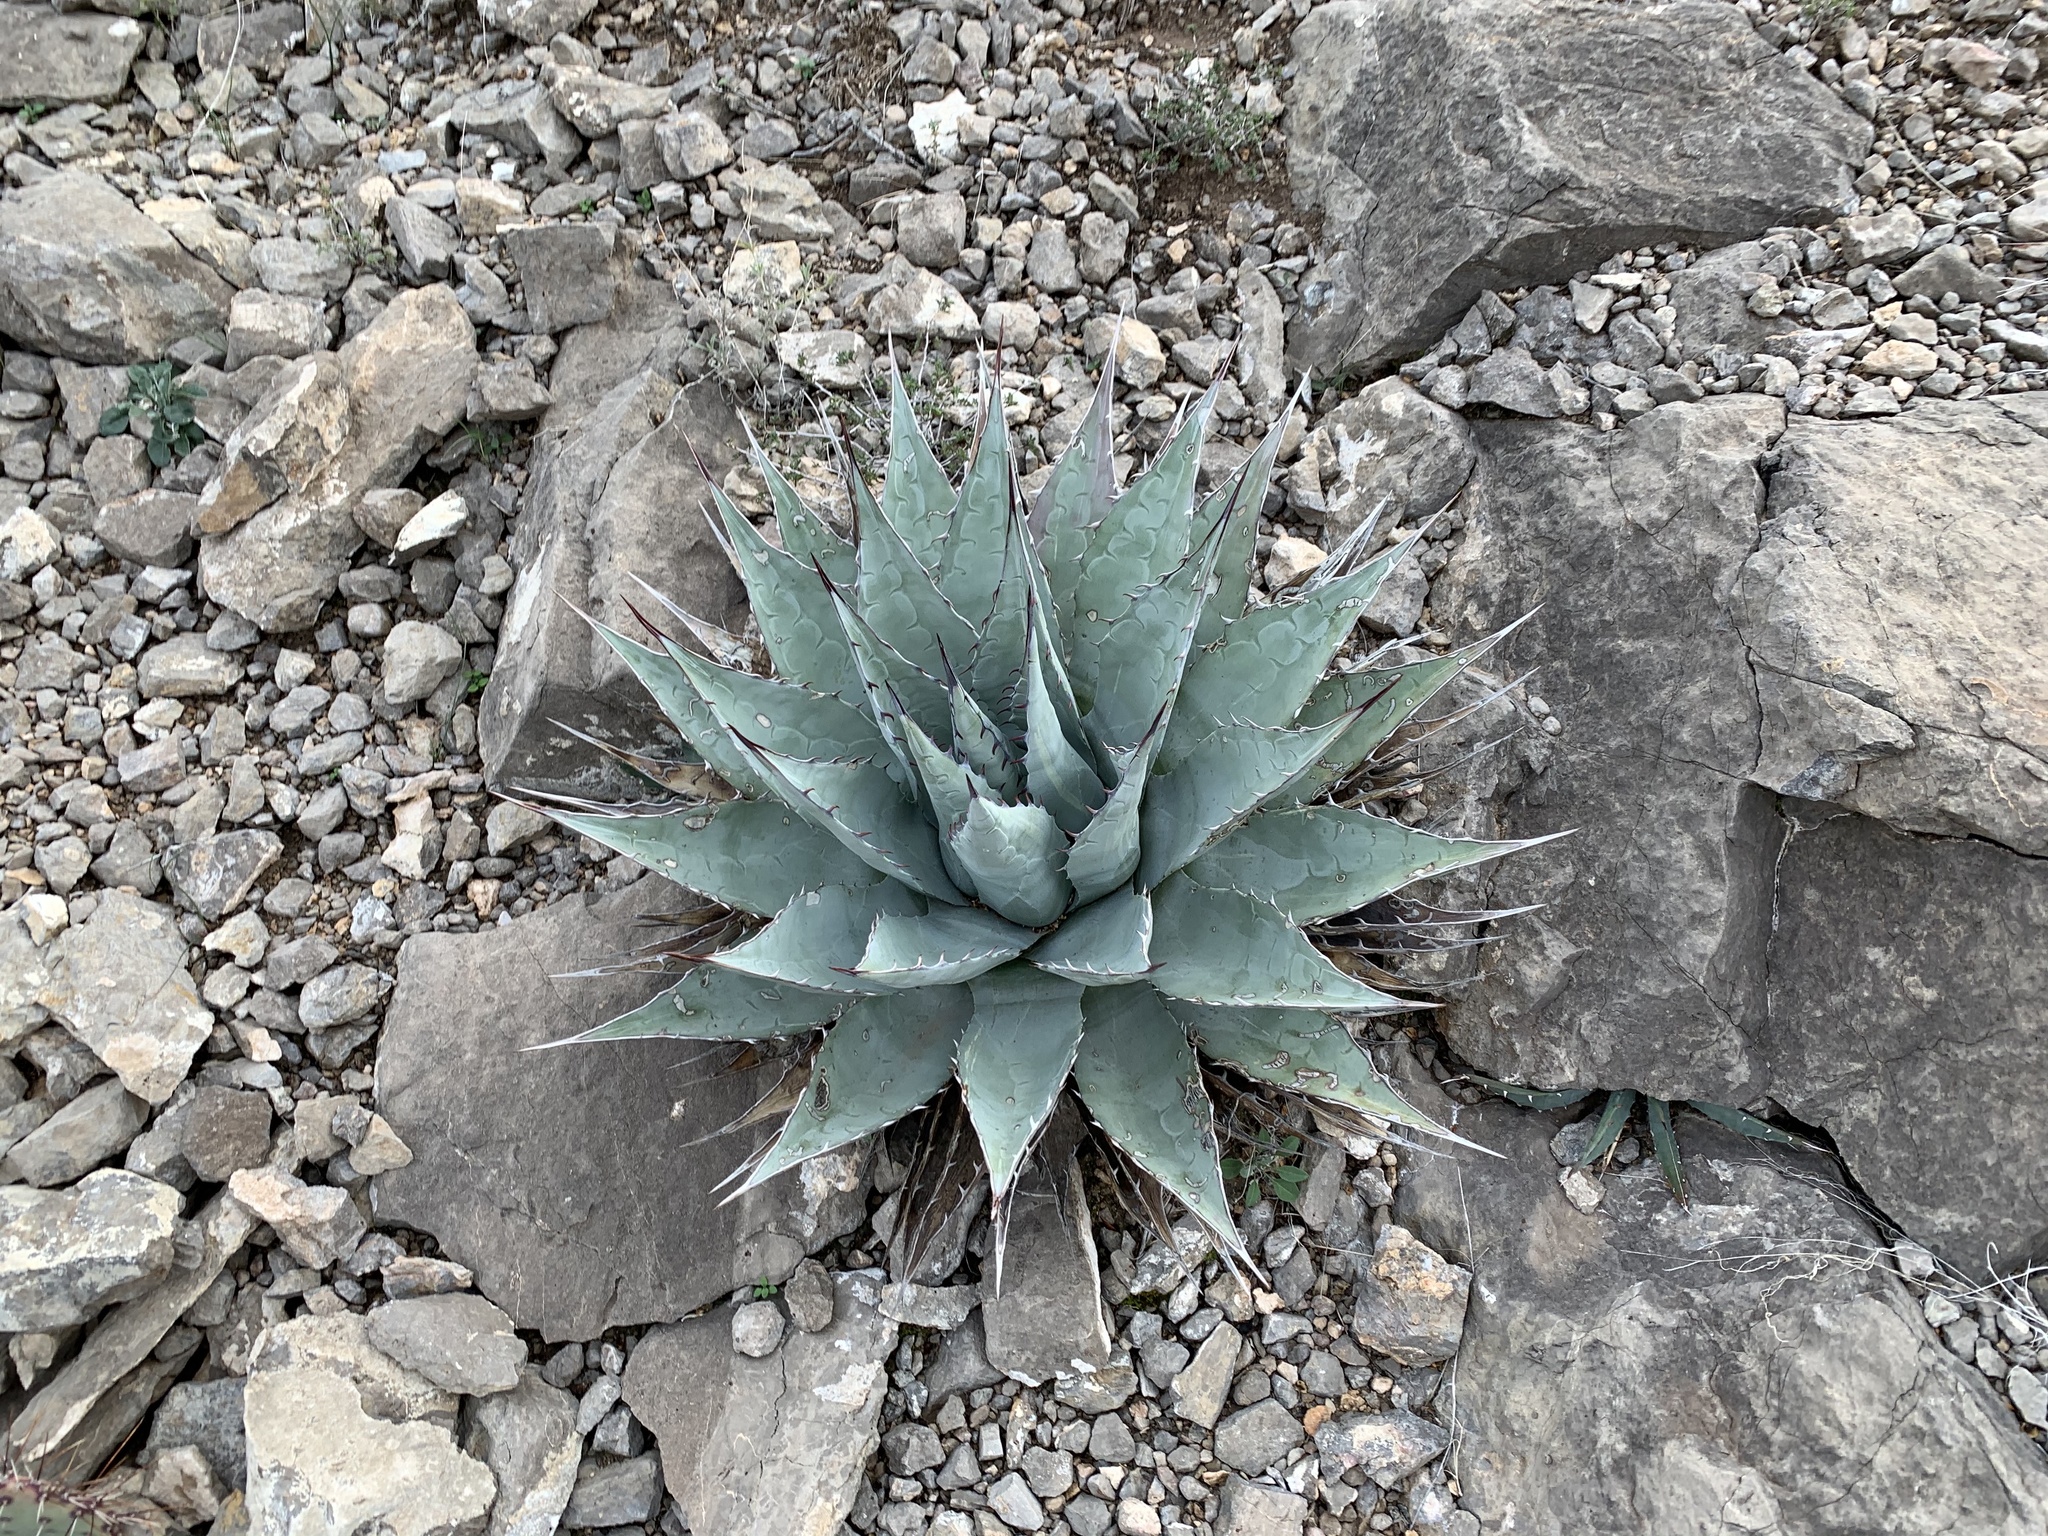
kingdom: Plantae
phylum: Tracheophyta
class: Liliopsida
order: Asparagales
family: Asparagaceae
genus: Agave
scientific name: Agave parryi
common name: Parry's agave
